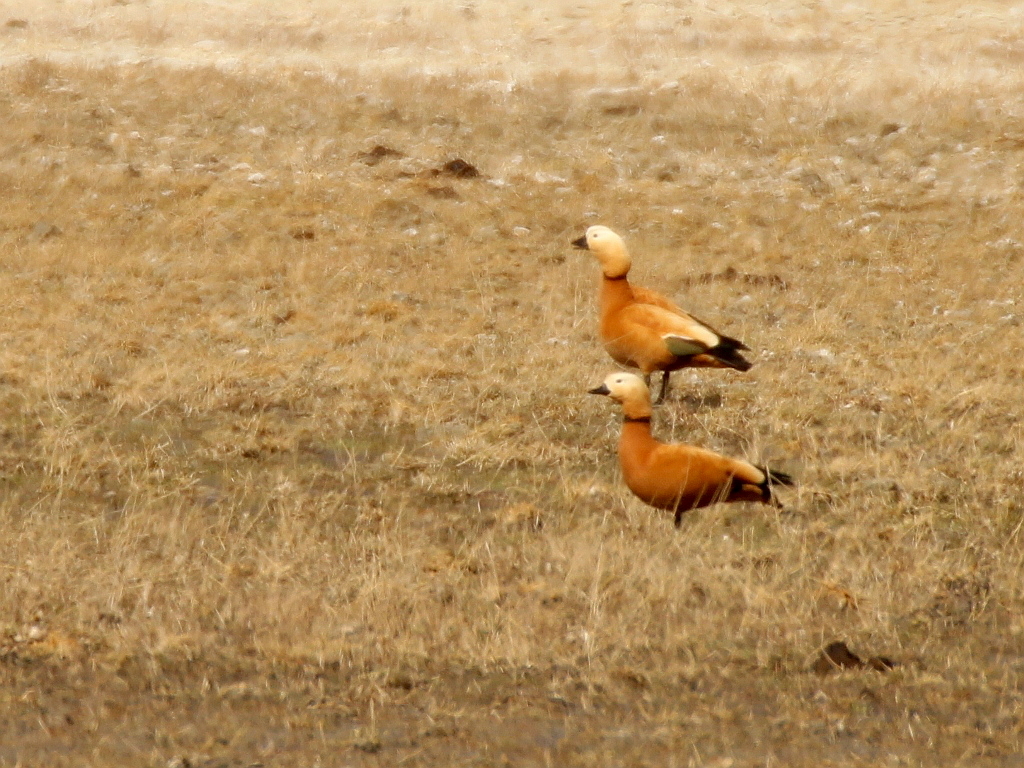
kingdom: Animalia
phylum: Chordata
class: Aves
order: Anseriformes
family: Anatidae
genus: Tadorna
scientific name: Tadorna ferruginea
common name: Ruddy shelduck
